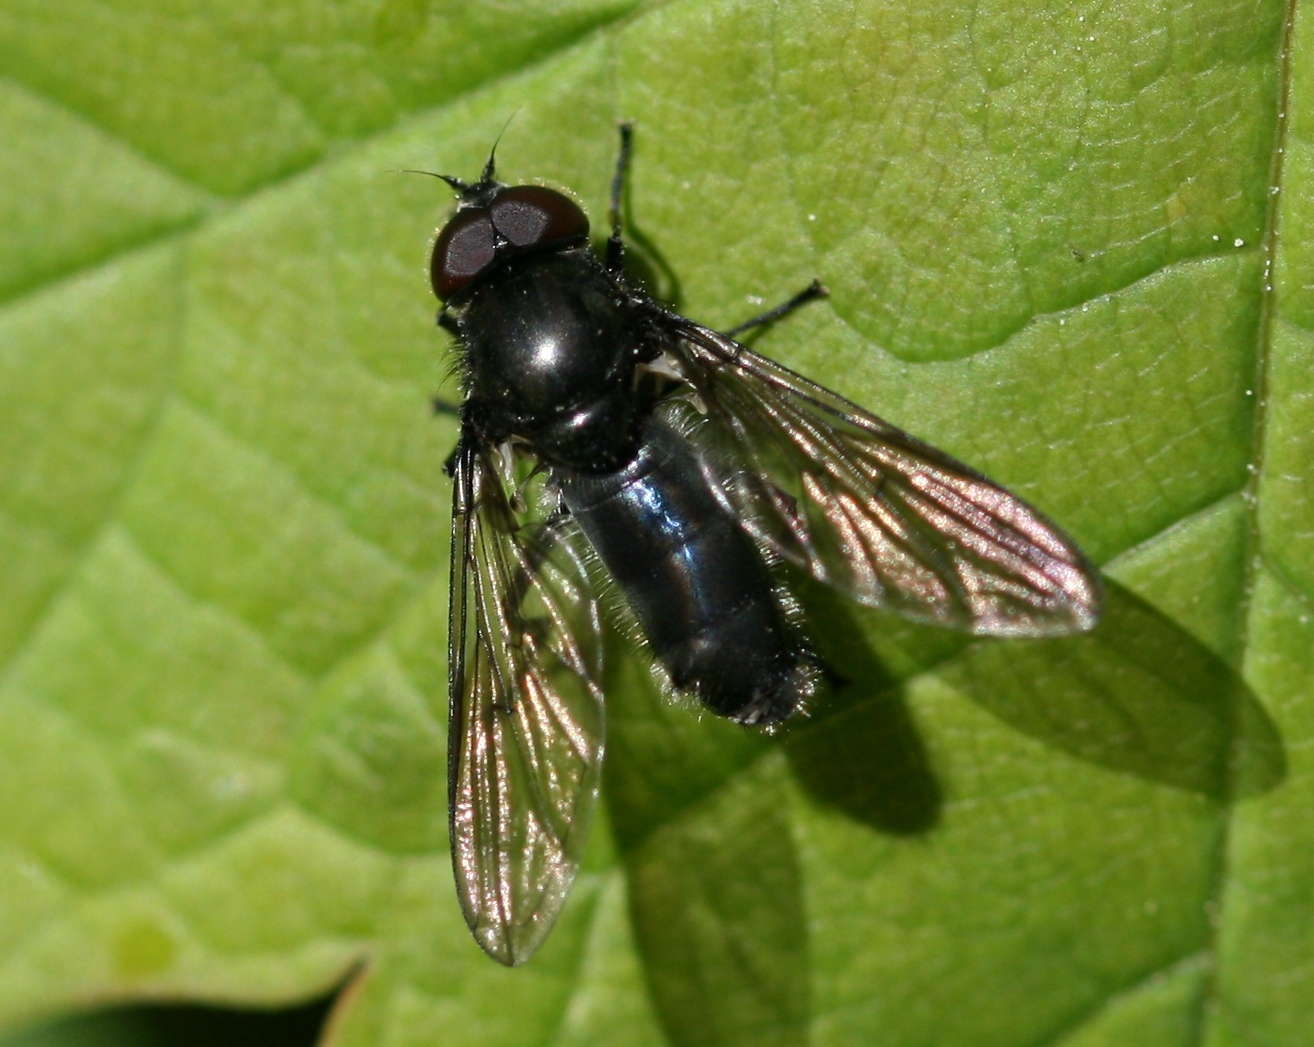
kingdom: Animalia
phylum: Arthropoda
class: Insecta
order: Diptera
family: Syrphidae
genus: Cheilosia
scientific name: Cheilosia variabilis
